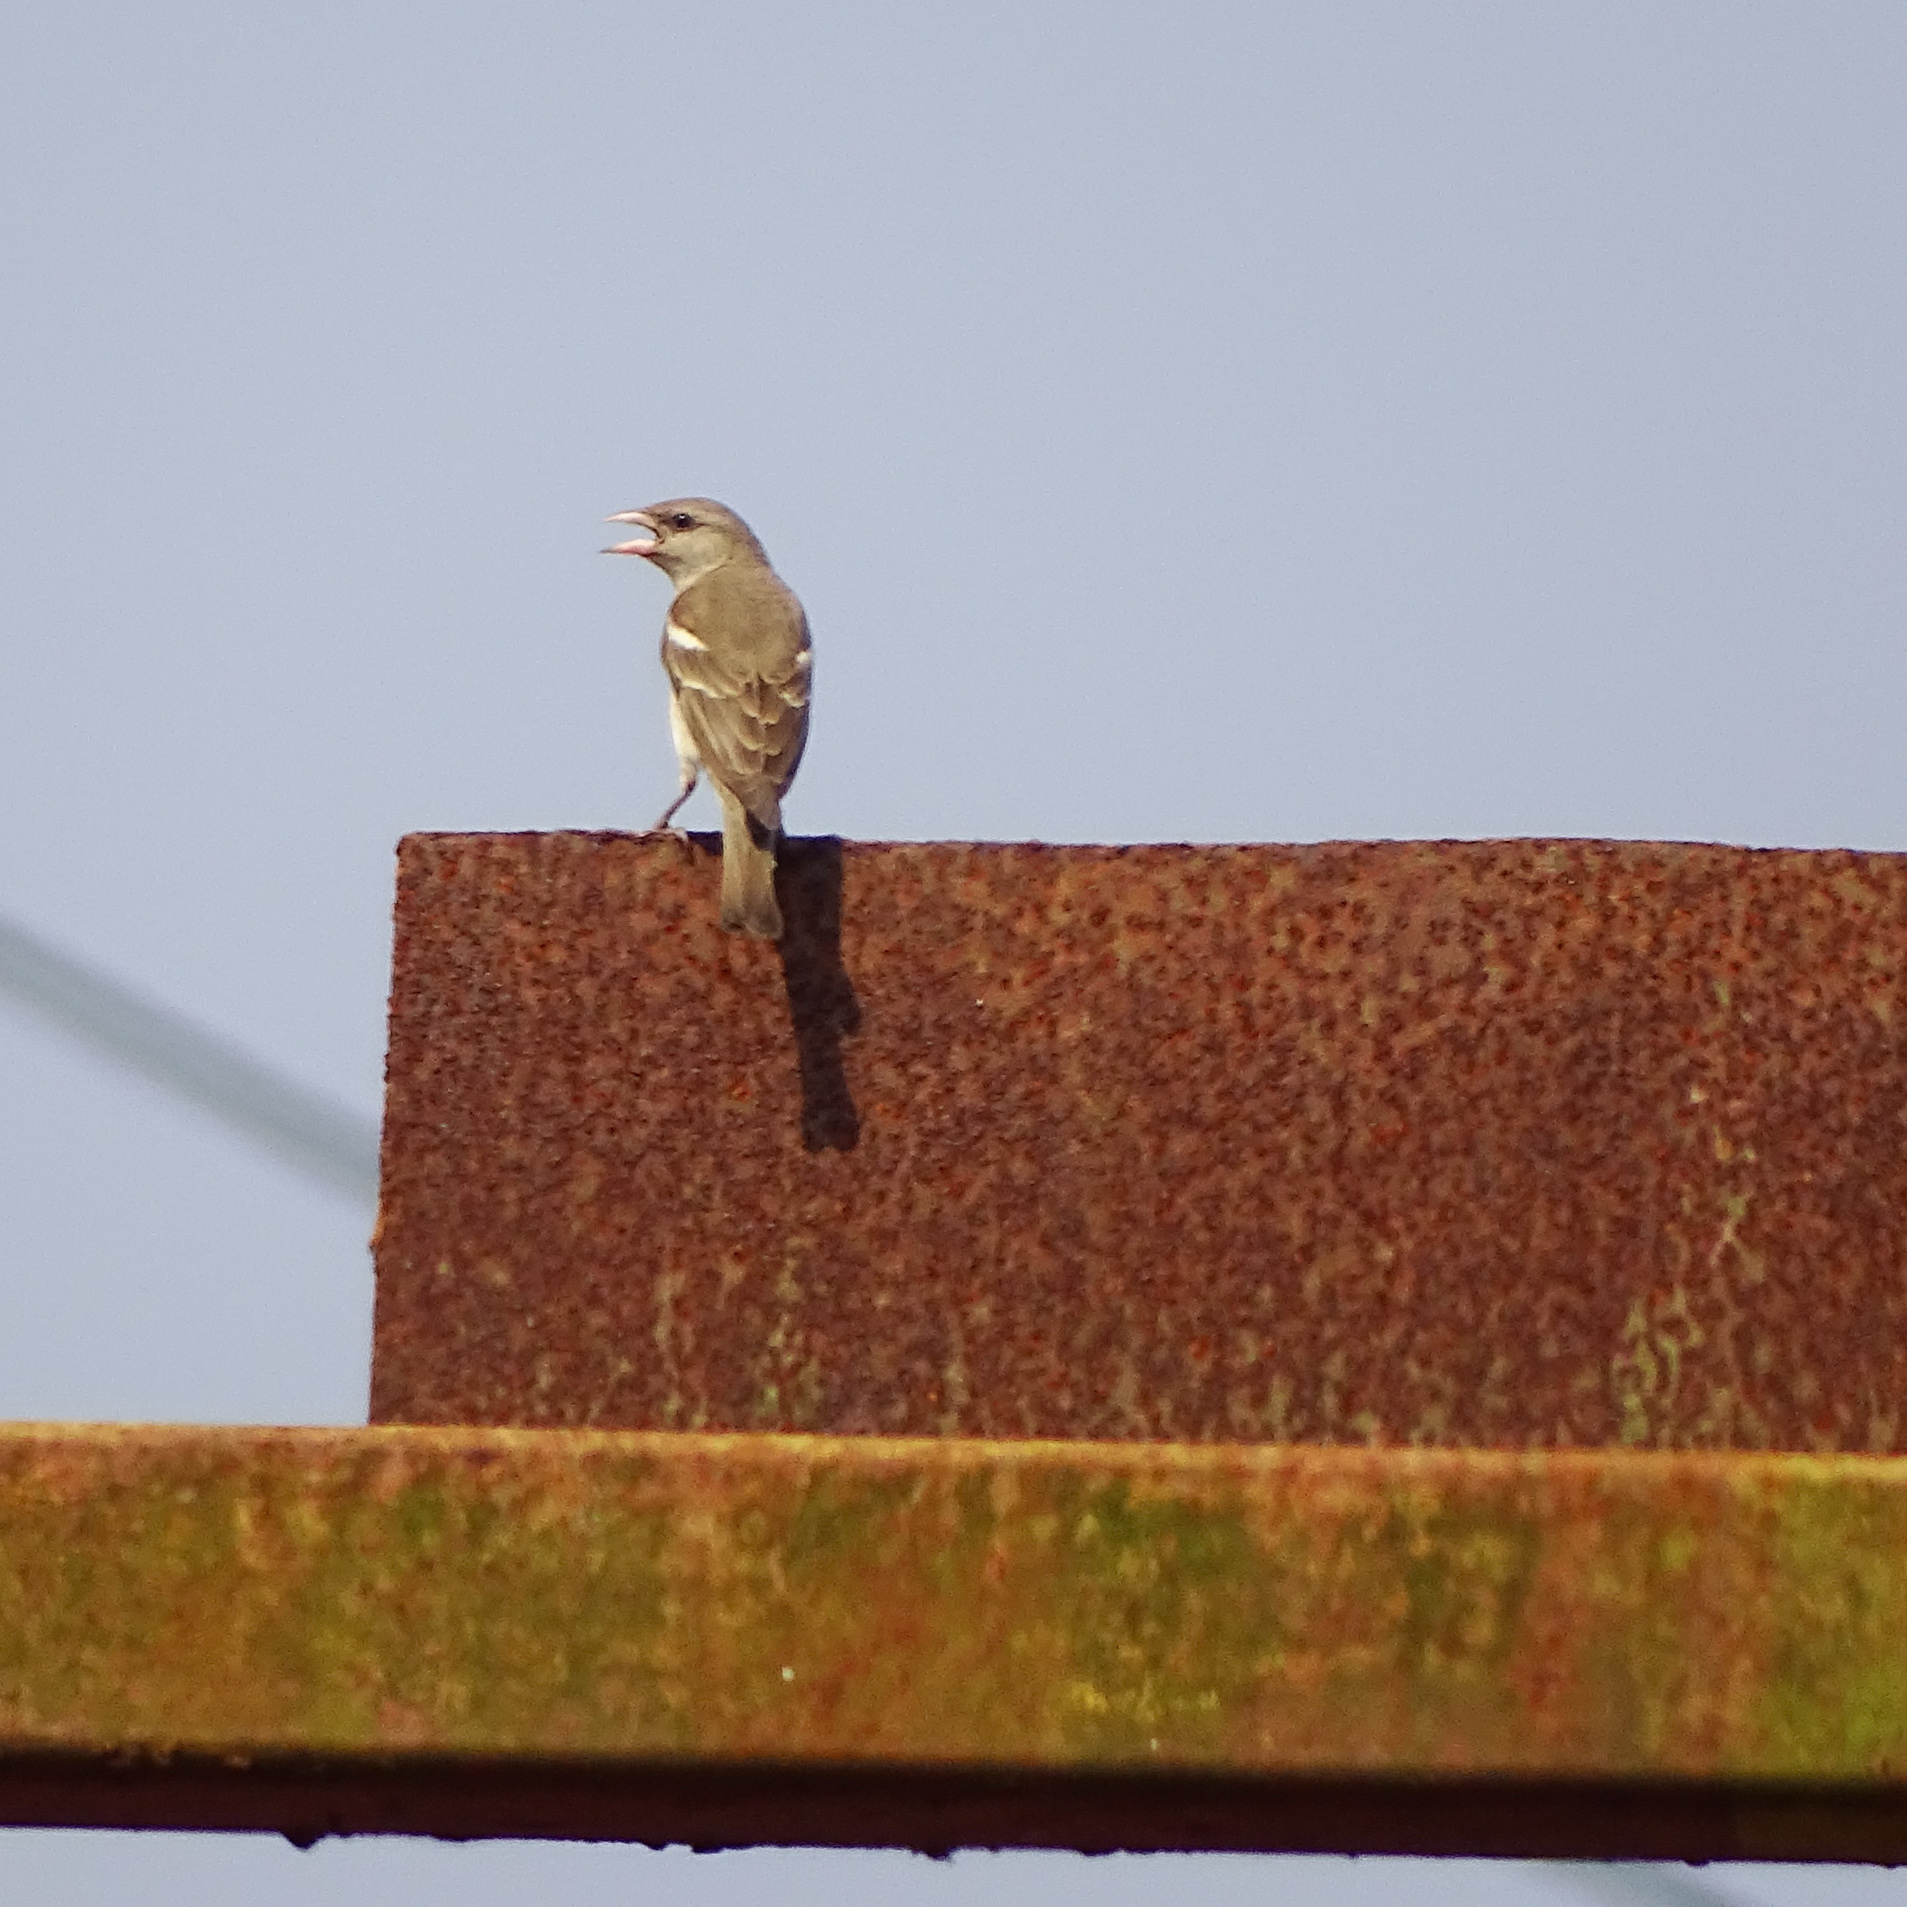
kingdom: Animalia
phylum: Chordata
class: Aves
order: Passeriformes
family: Passeridae
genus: Gymnoris
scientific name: Gymnoris xanthocollis
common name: Yellow-throated sparrow
